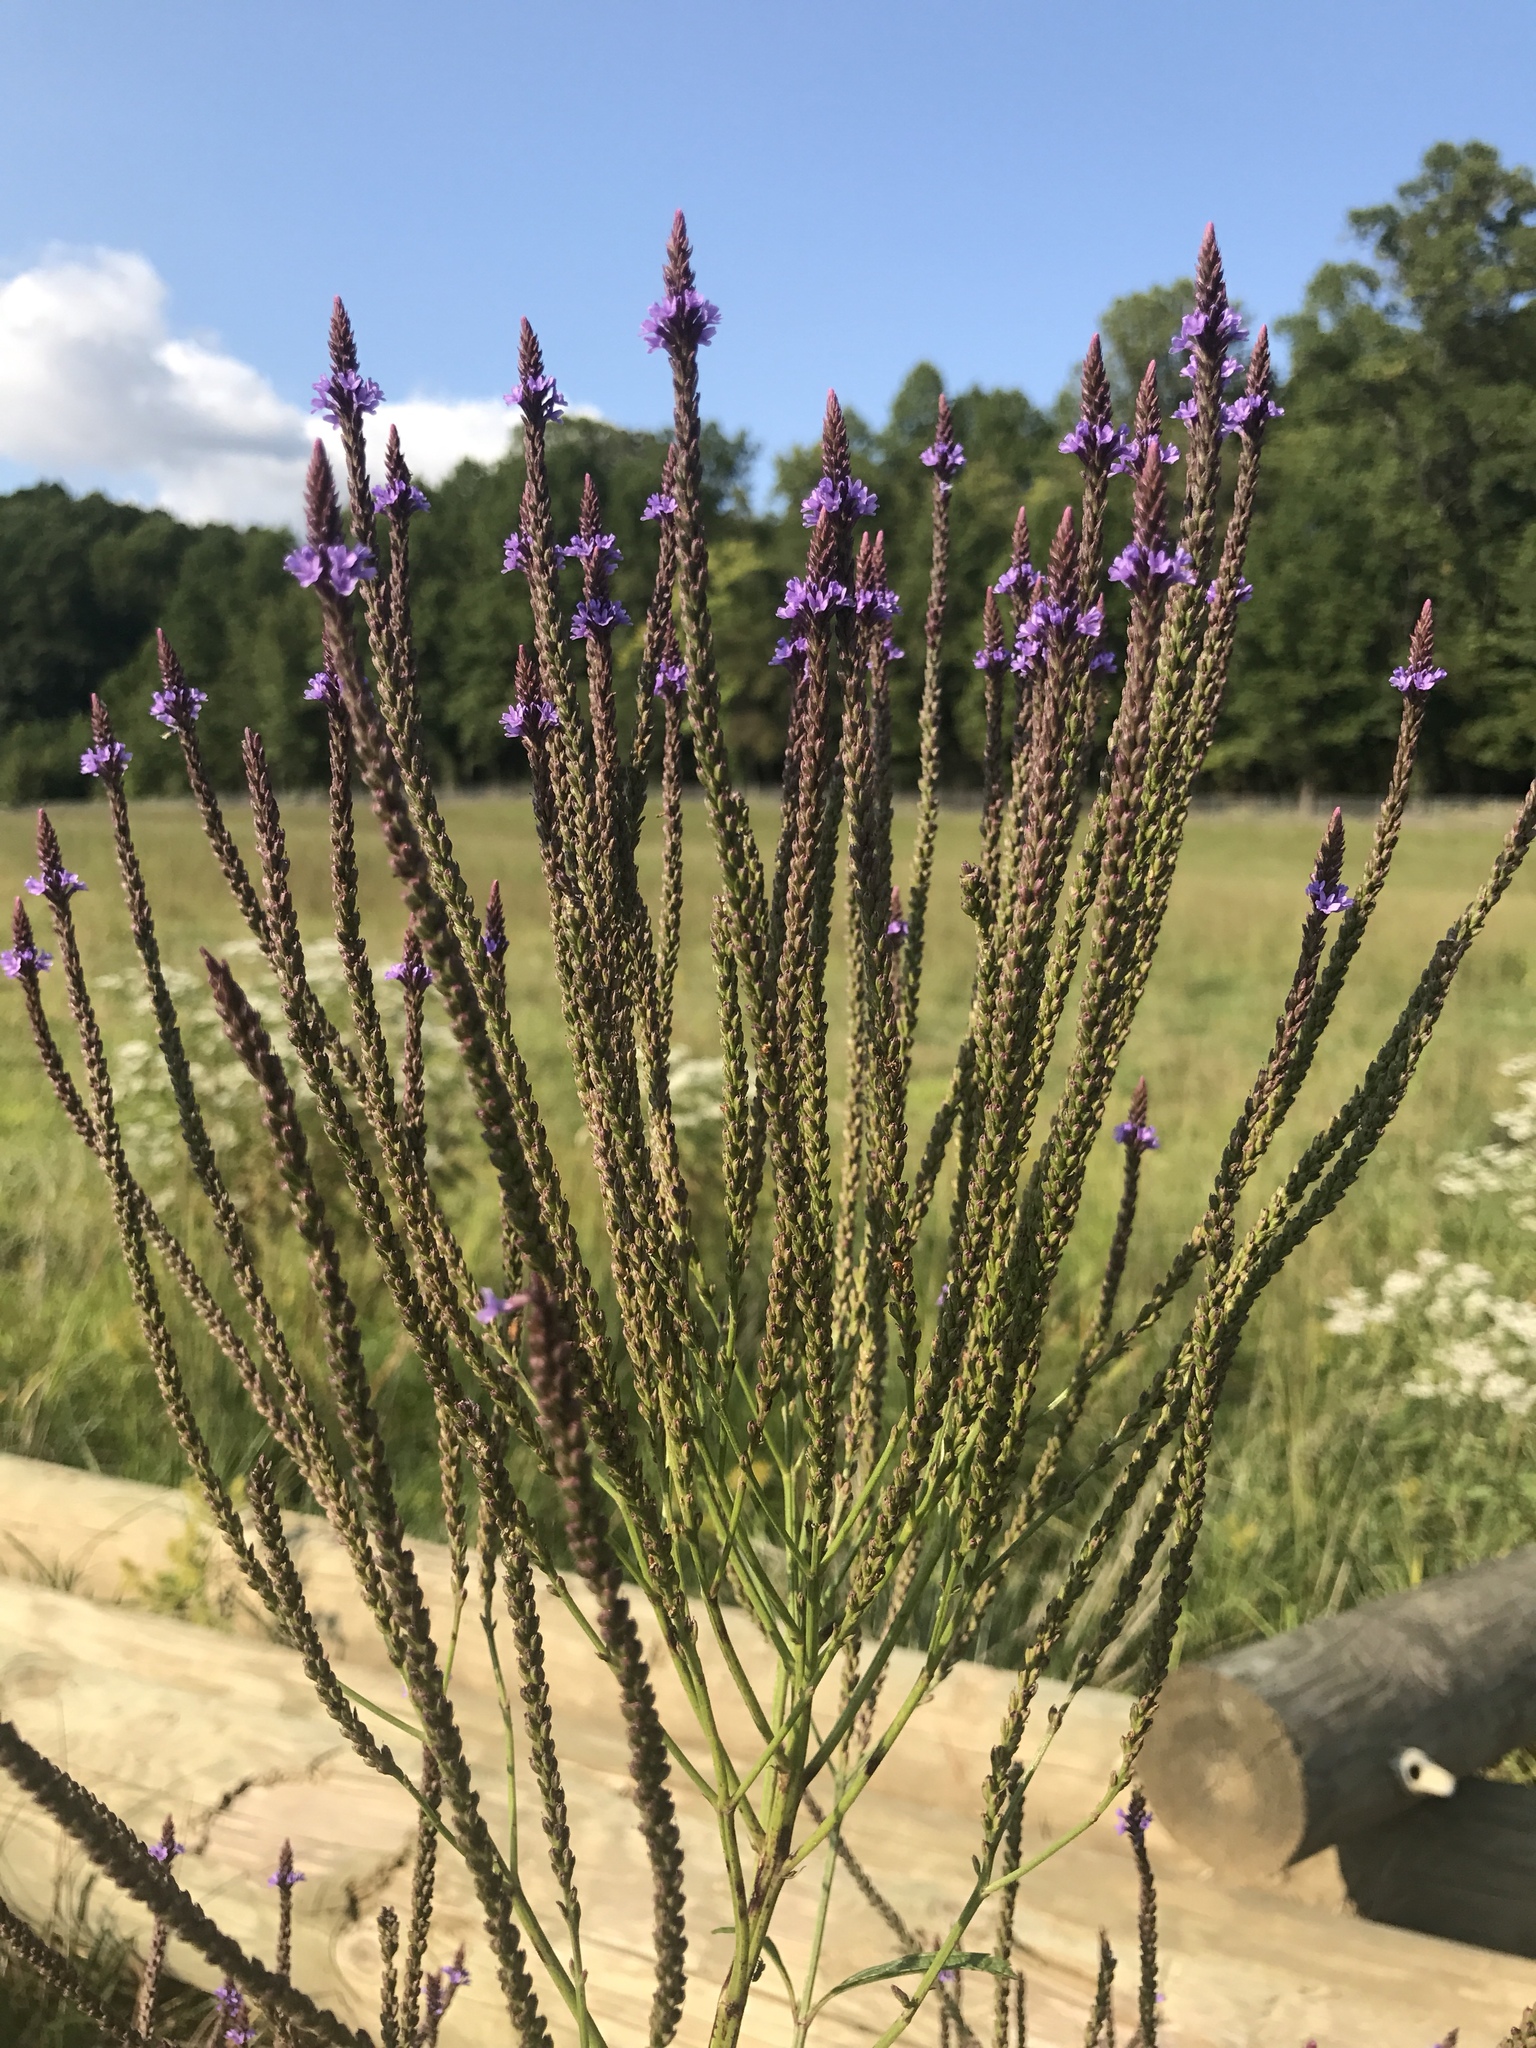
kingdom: Plantae
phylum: Tracheophyta
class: Magnoliopsida
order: Lamiales
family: Verbenaceae
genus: Verbena
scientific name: Verbena hastata
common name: American blue vervain
